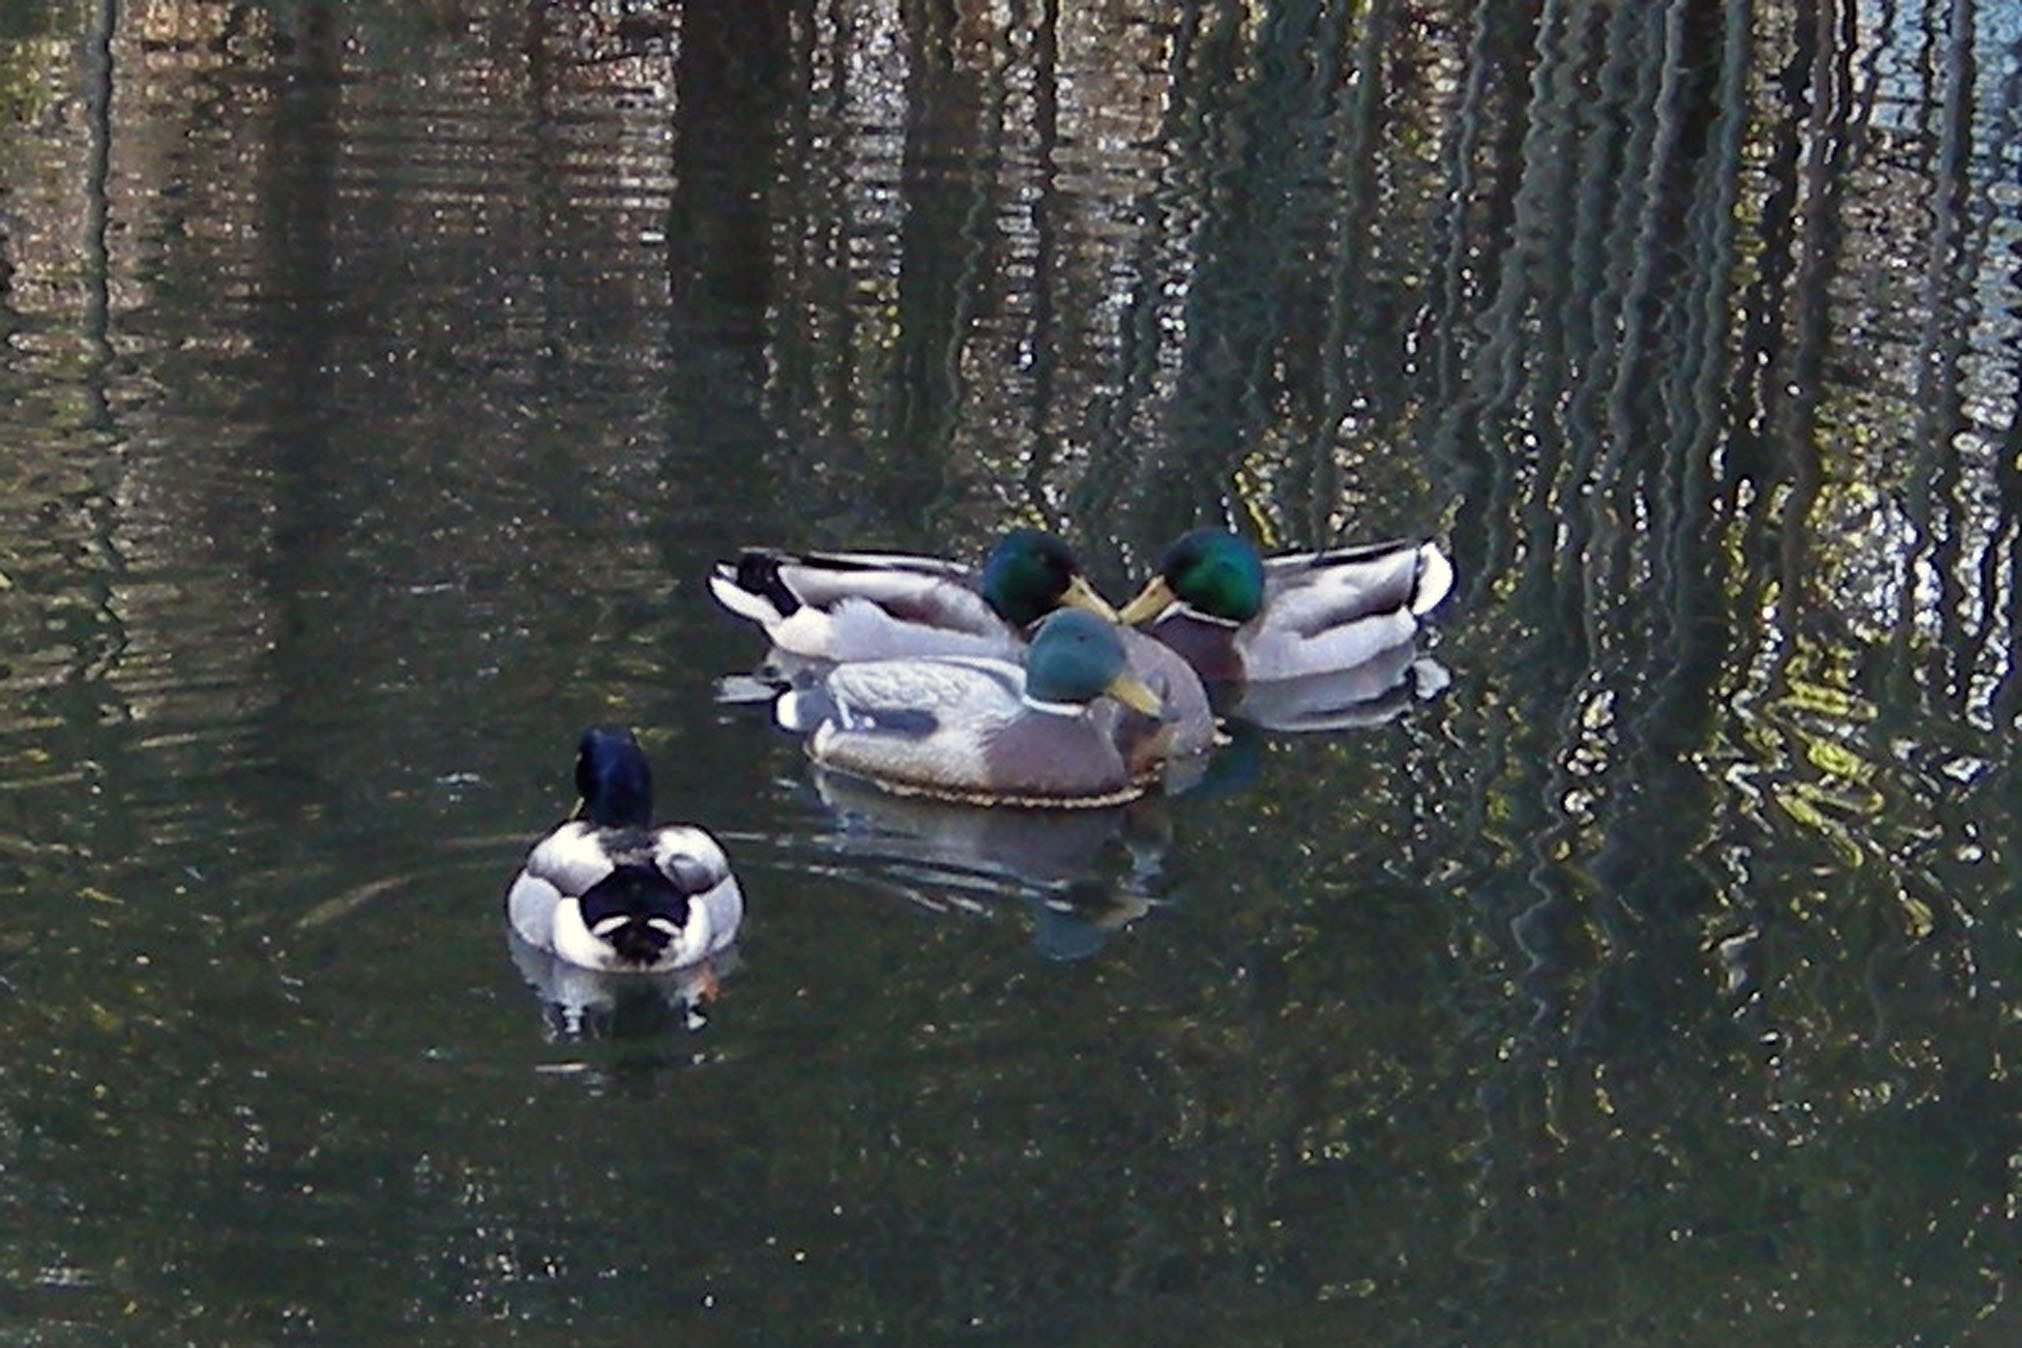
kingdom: Animalia
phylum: Chordata
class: Aves
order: Anseriformes
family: Anatidae
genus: Anas
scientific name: Anas platyrhynchos
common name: Mallard
